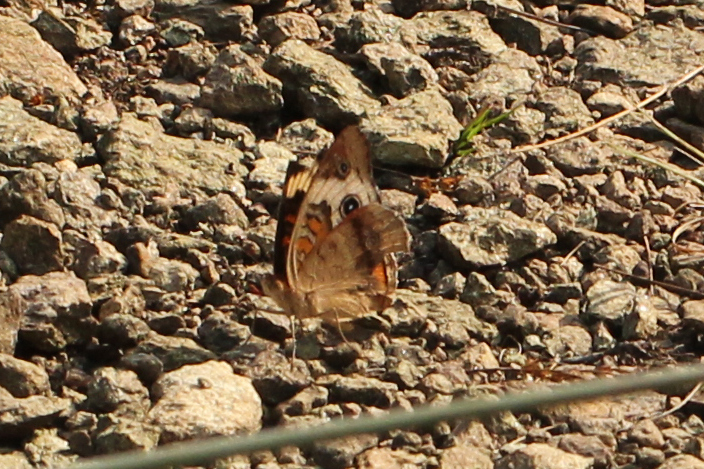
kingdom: Animalia
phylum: Arthropoda
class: Insecta
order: Lepidoptera
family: Nymphalidae
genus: Junonia
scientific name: Junonia coenia
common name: Common buckeye
